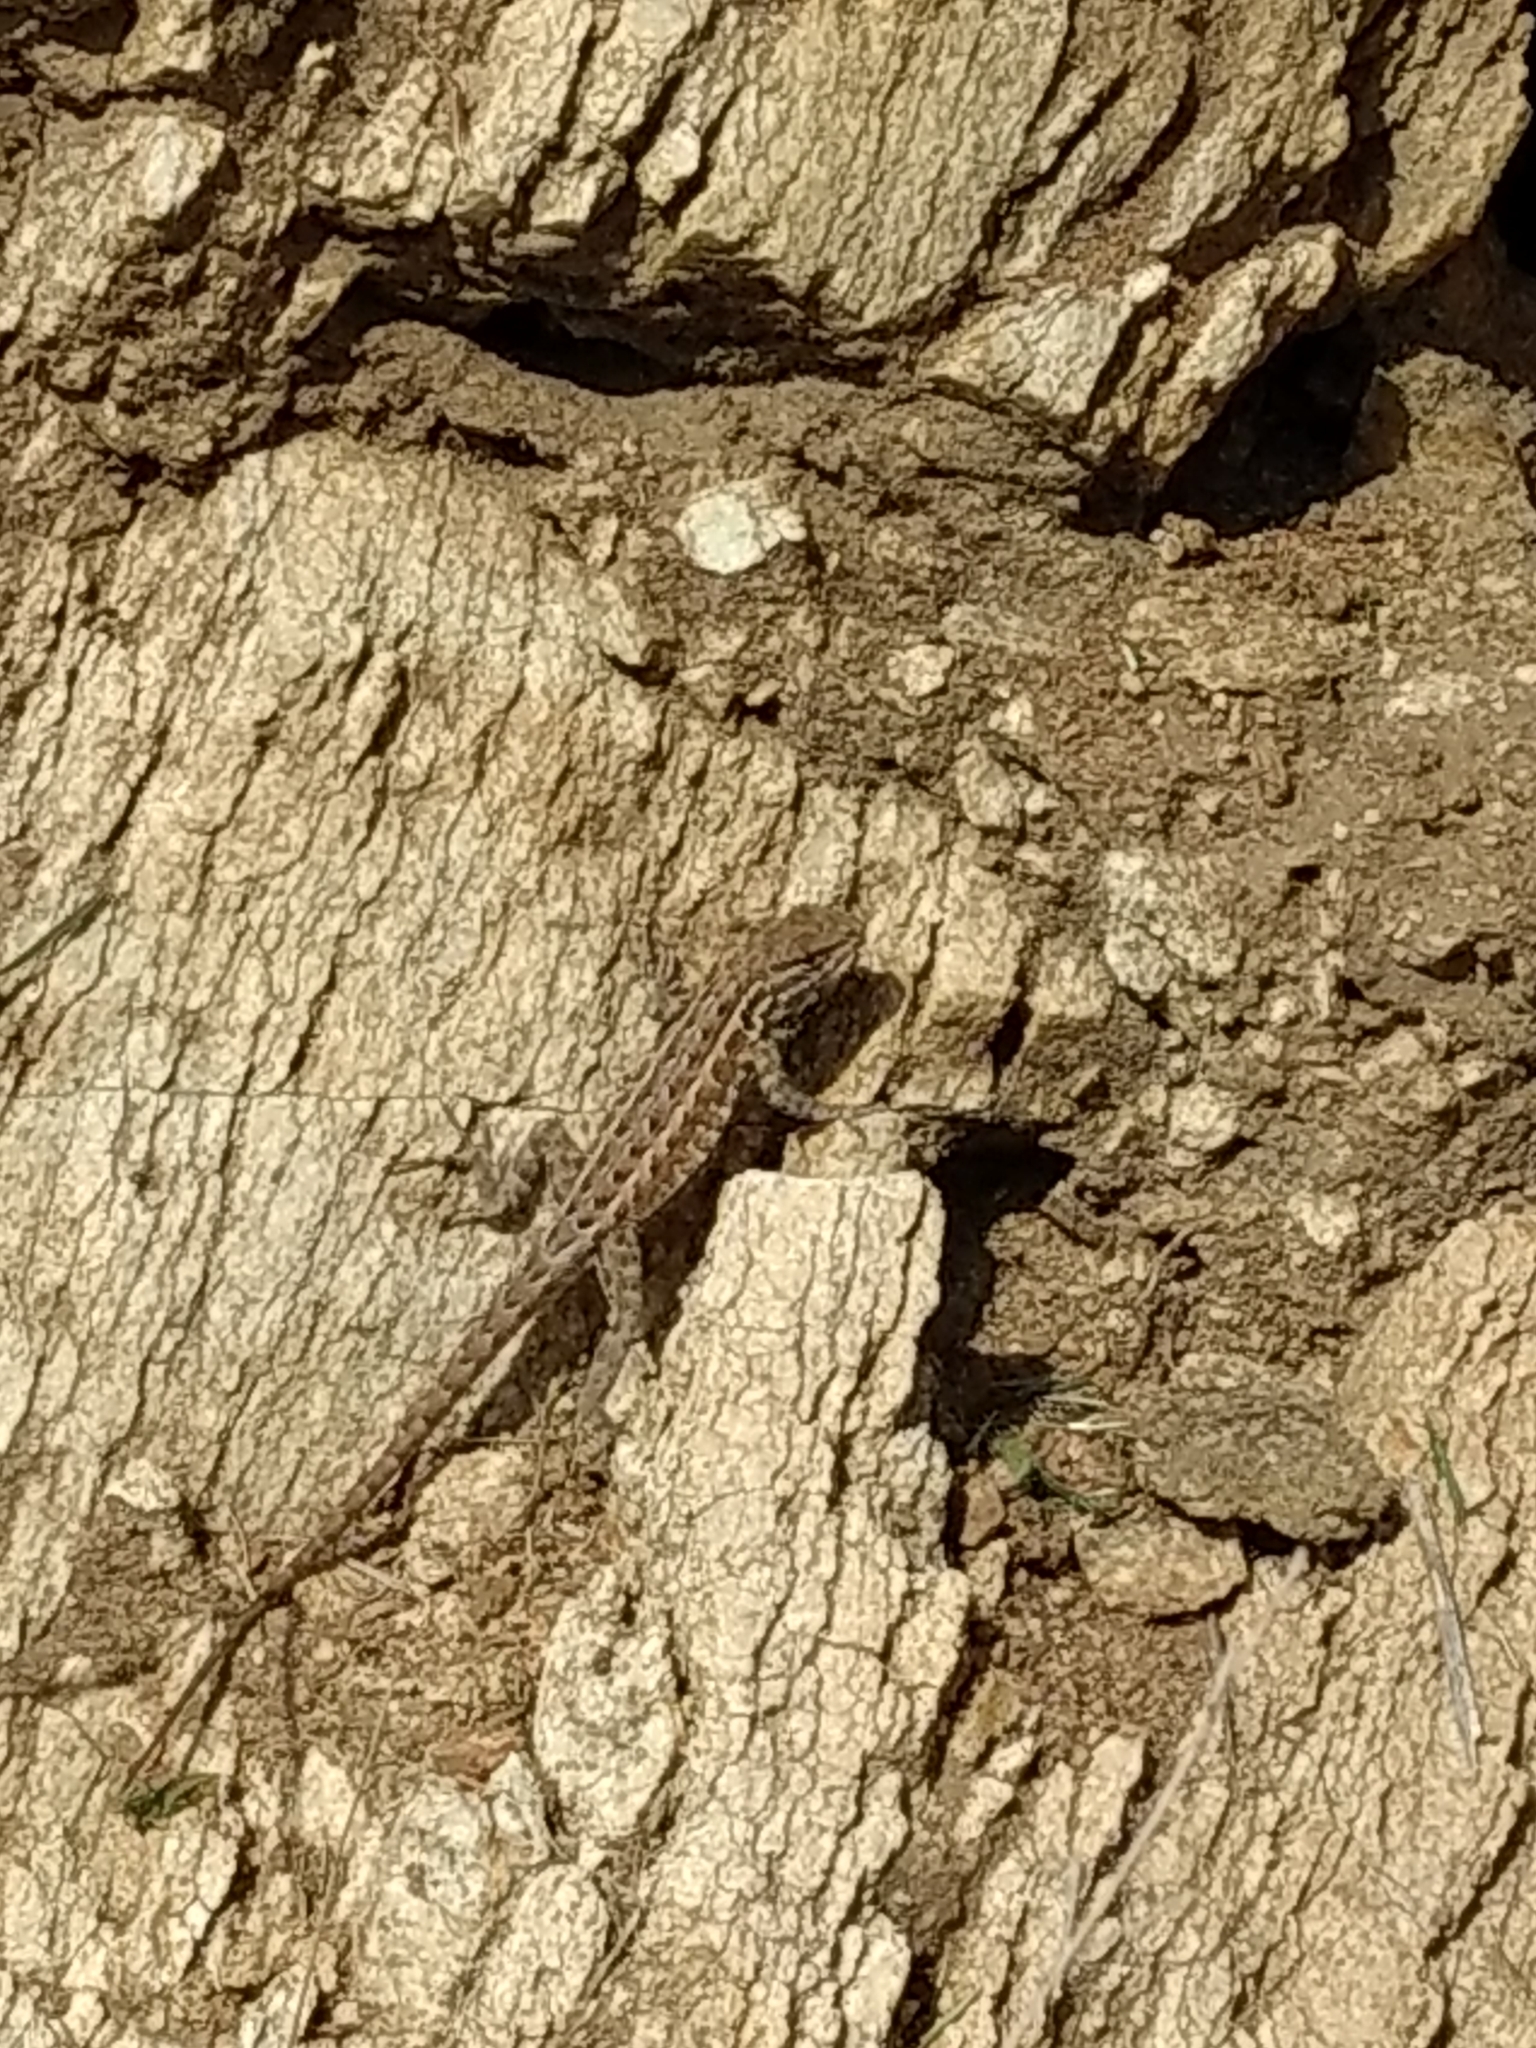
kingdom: Animalia
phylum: Chordata
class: Squamata
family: Phrynosomatidae
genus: Uta
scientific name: Uta stansburiana
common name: Side-blotched lizard
